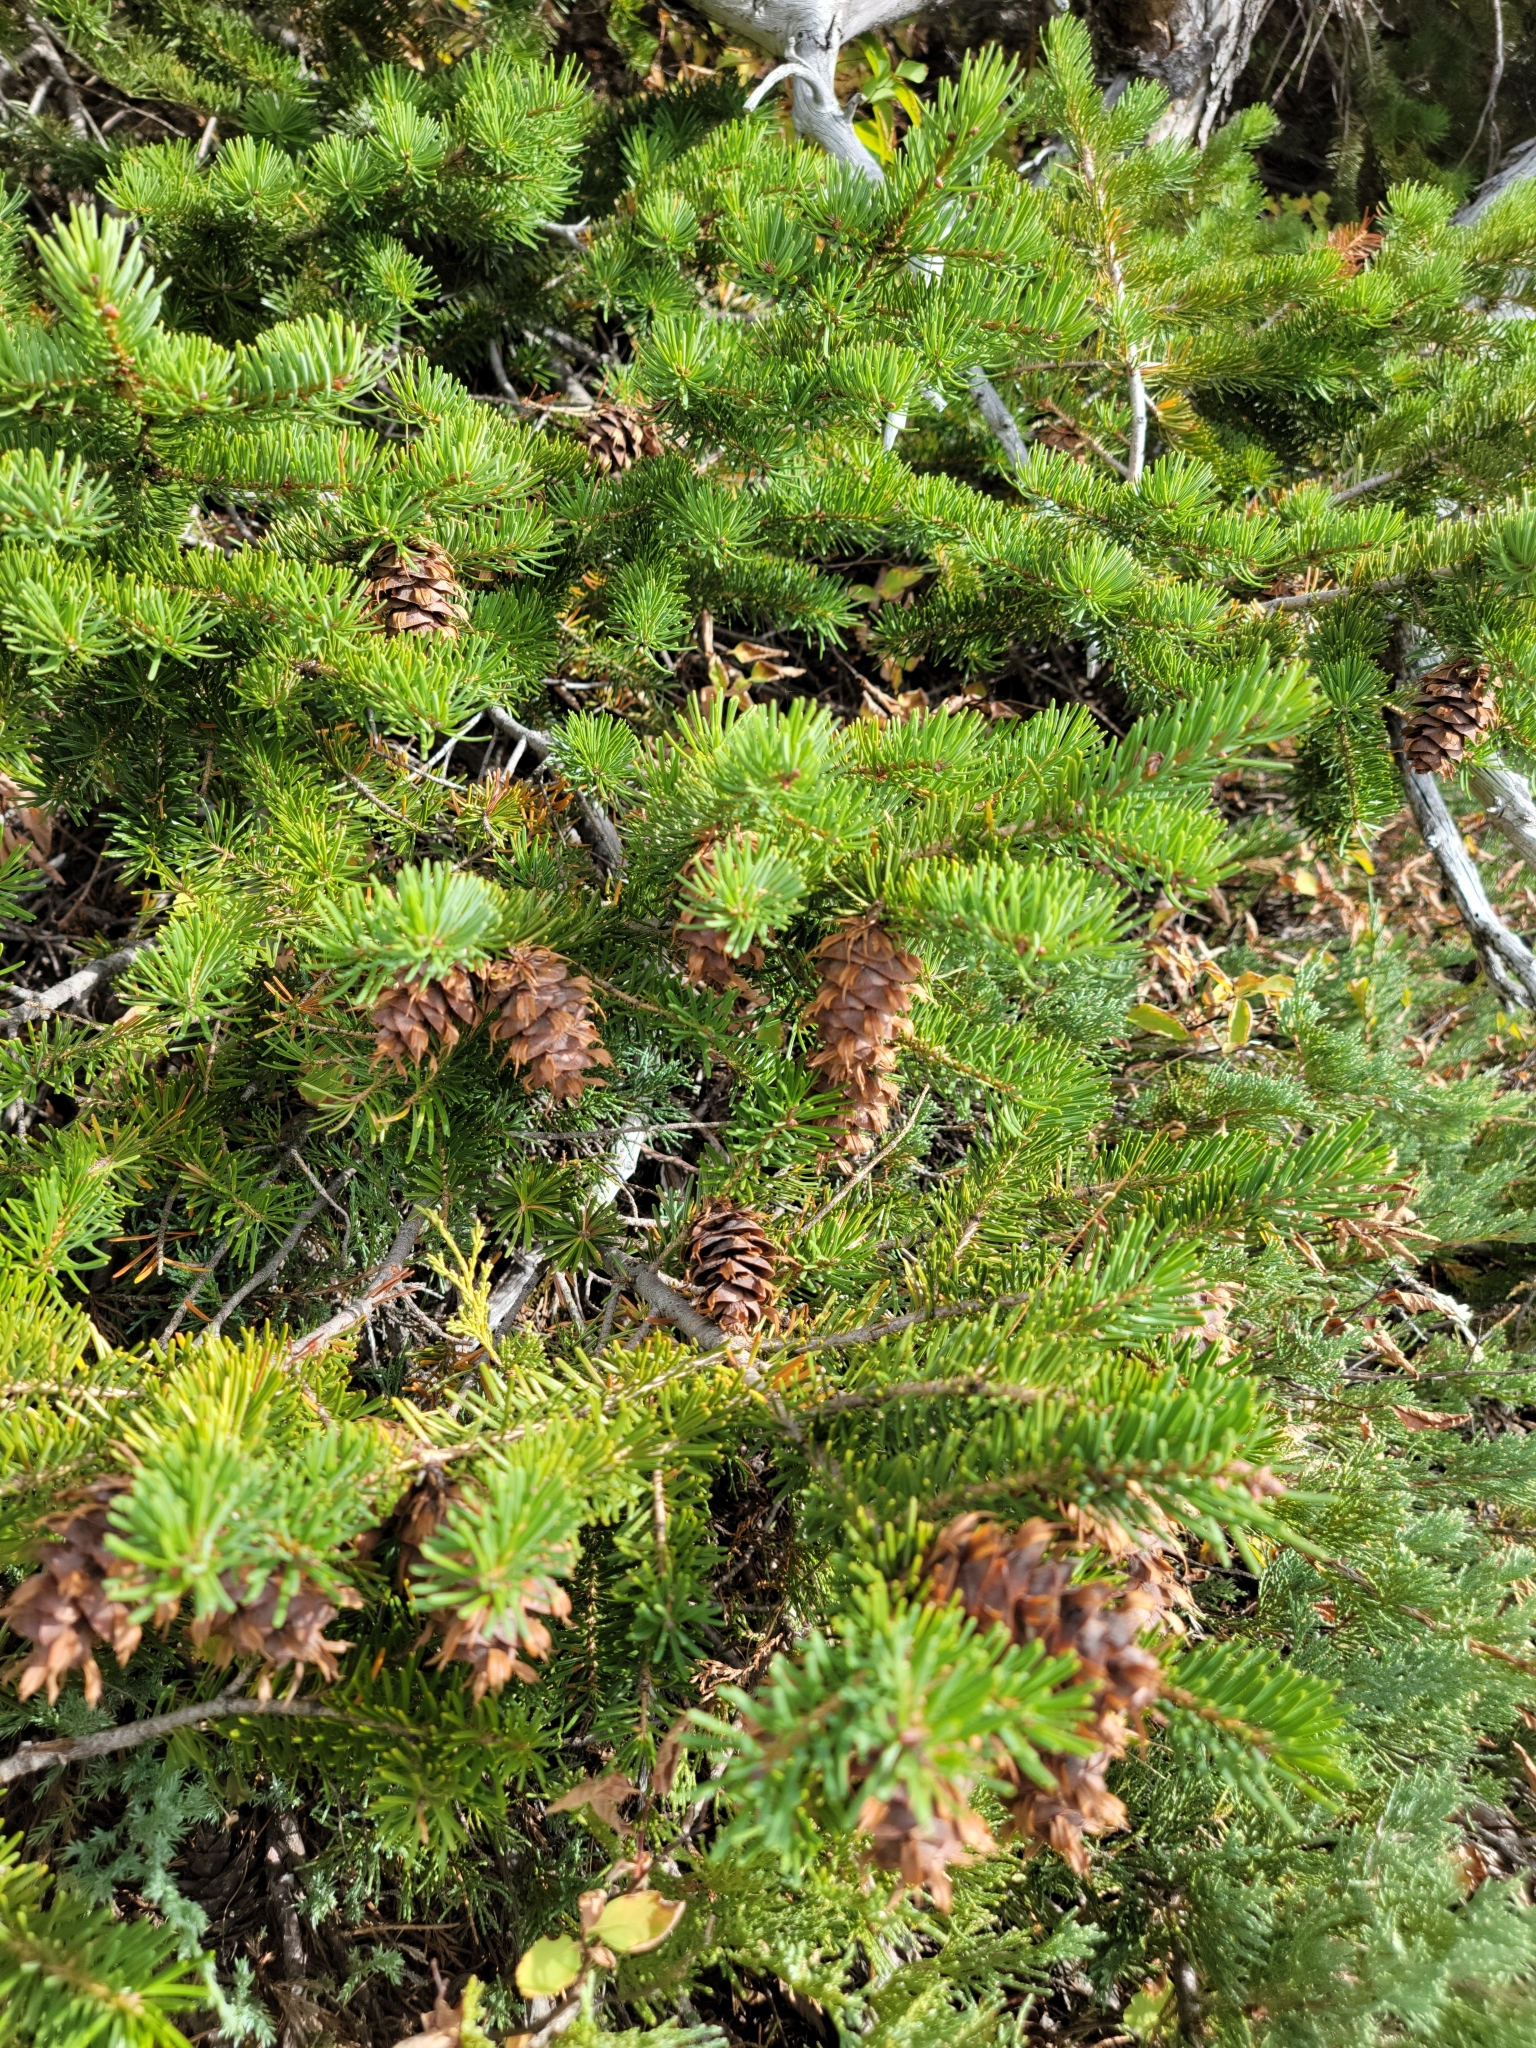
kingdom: Plantae
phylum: Tracheophyta
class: Pinopsida
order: Pinales
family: Pinaceae
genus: Pseudotsuga
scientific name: Pseudotsuga menziesii
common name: Douglas fir
